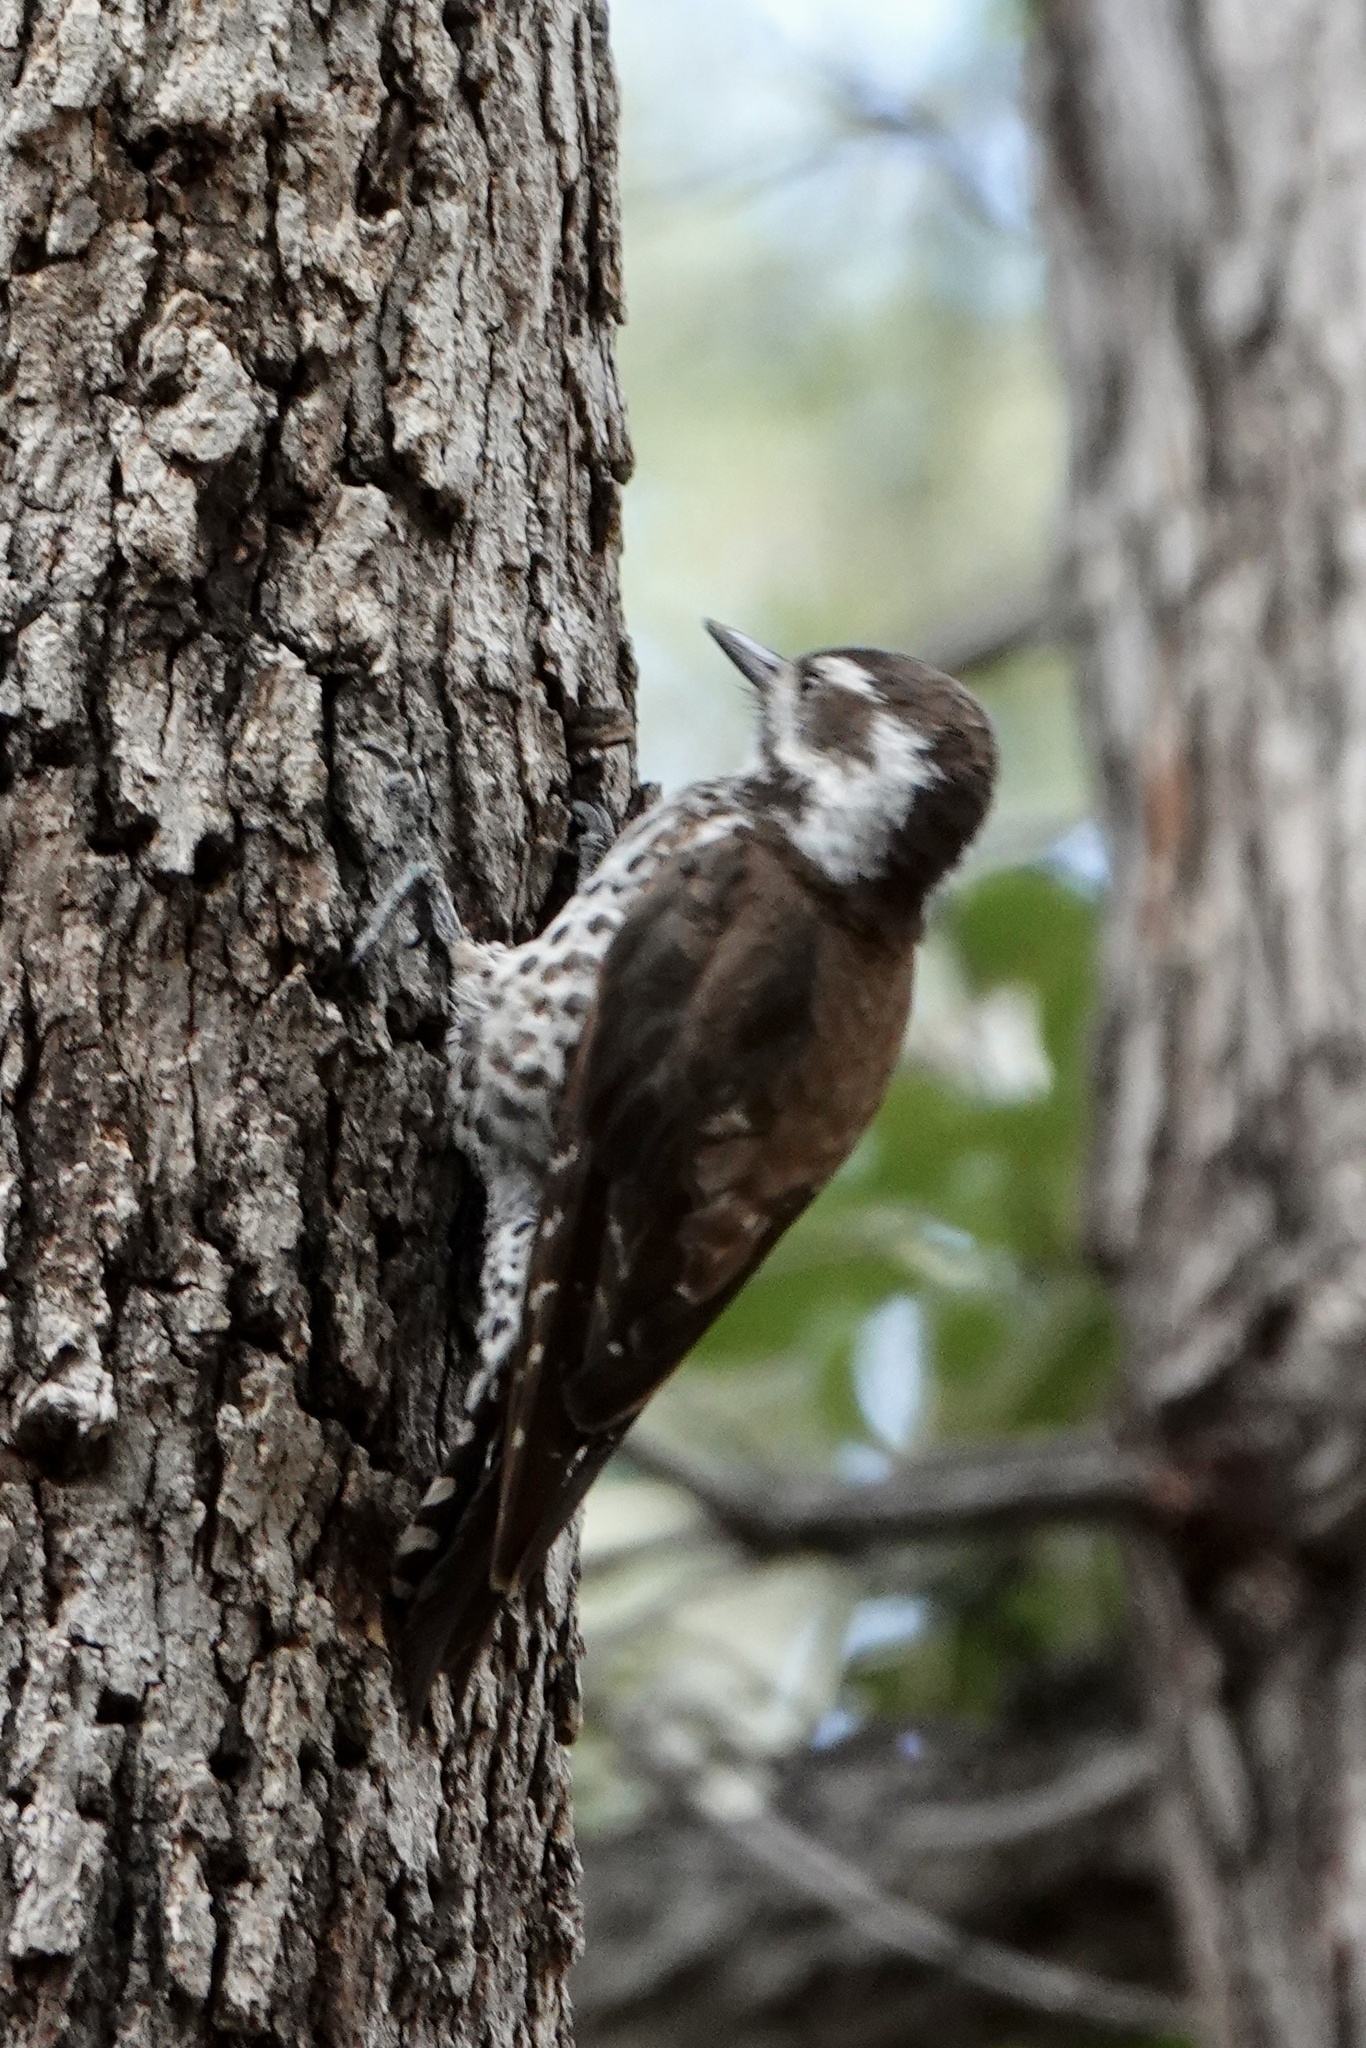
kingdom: Animalia
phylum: Chordata
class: Aves
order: Piciformes
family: Picidae
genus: Leuconotopicus
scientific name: Leuconotopicus arizonae
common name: Arizona woodpecker
